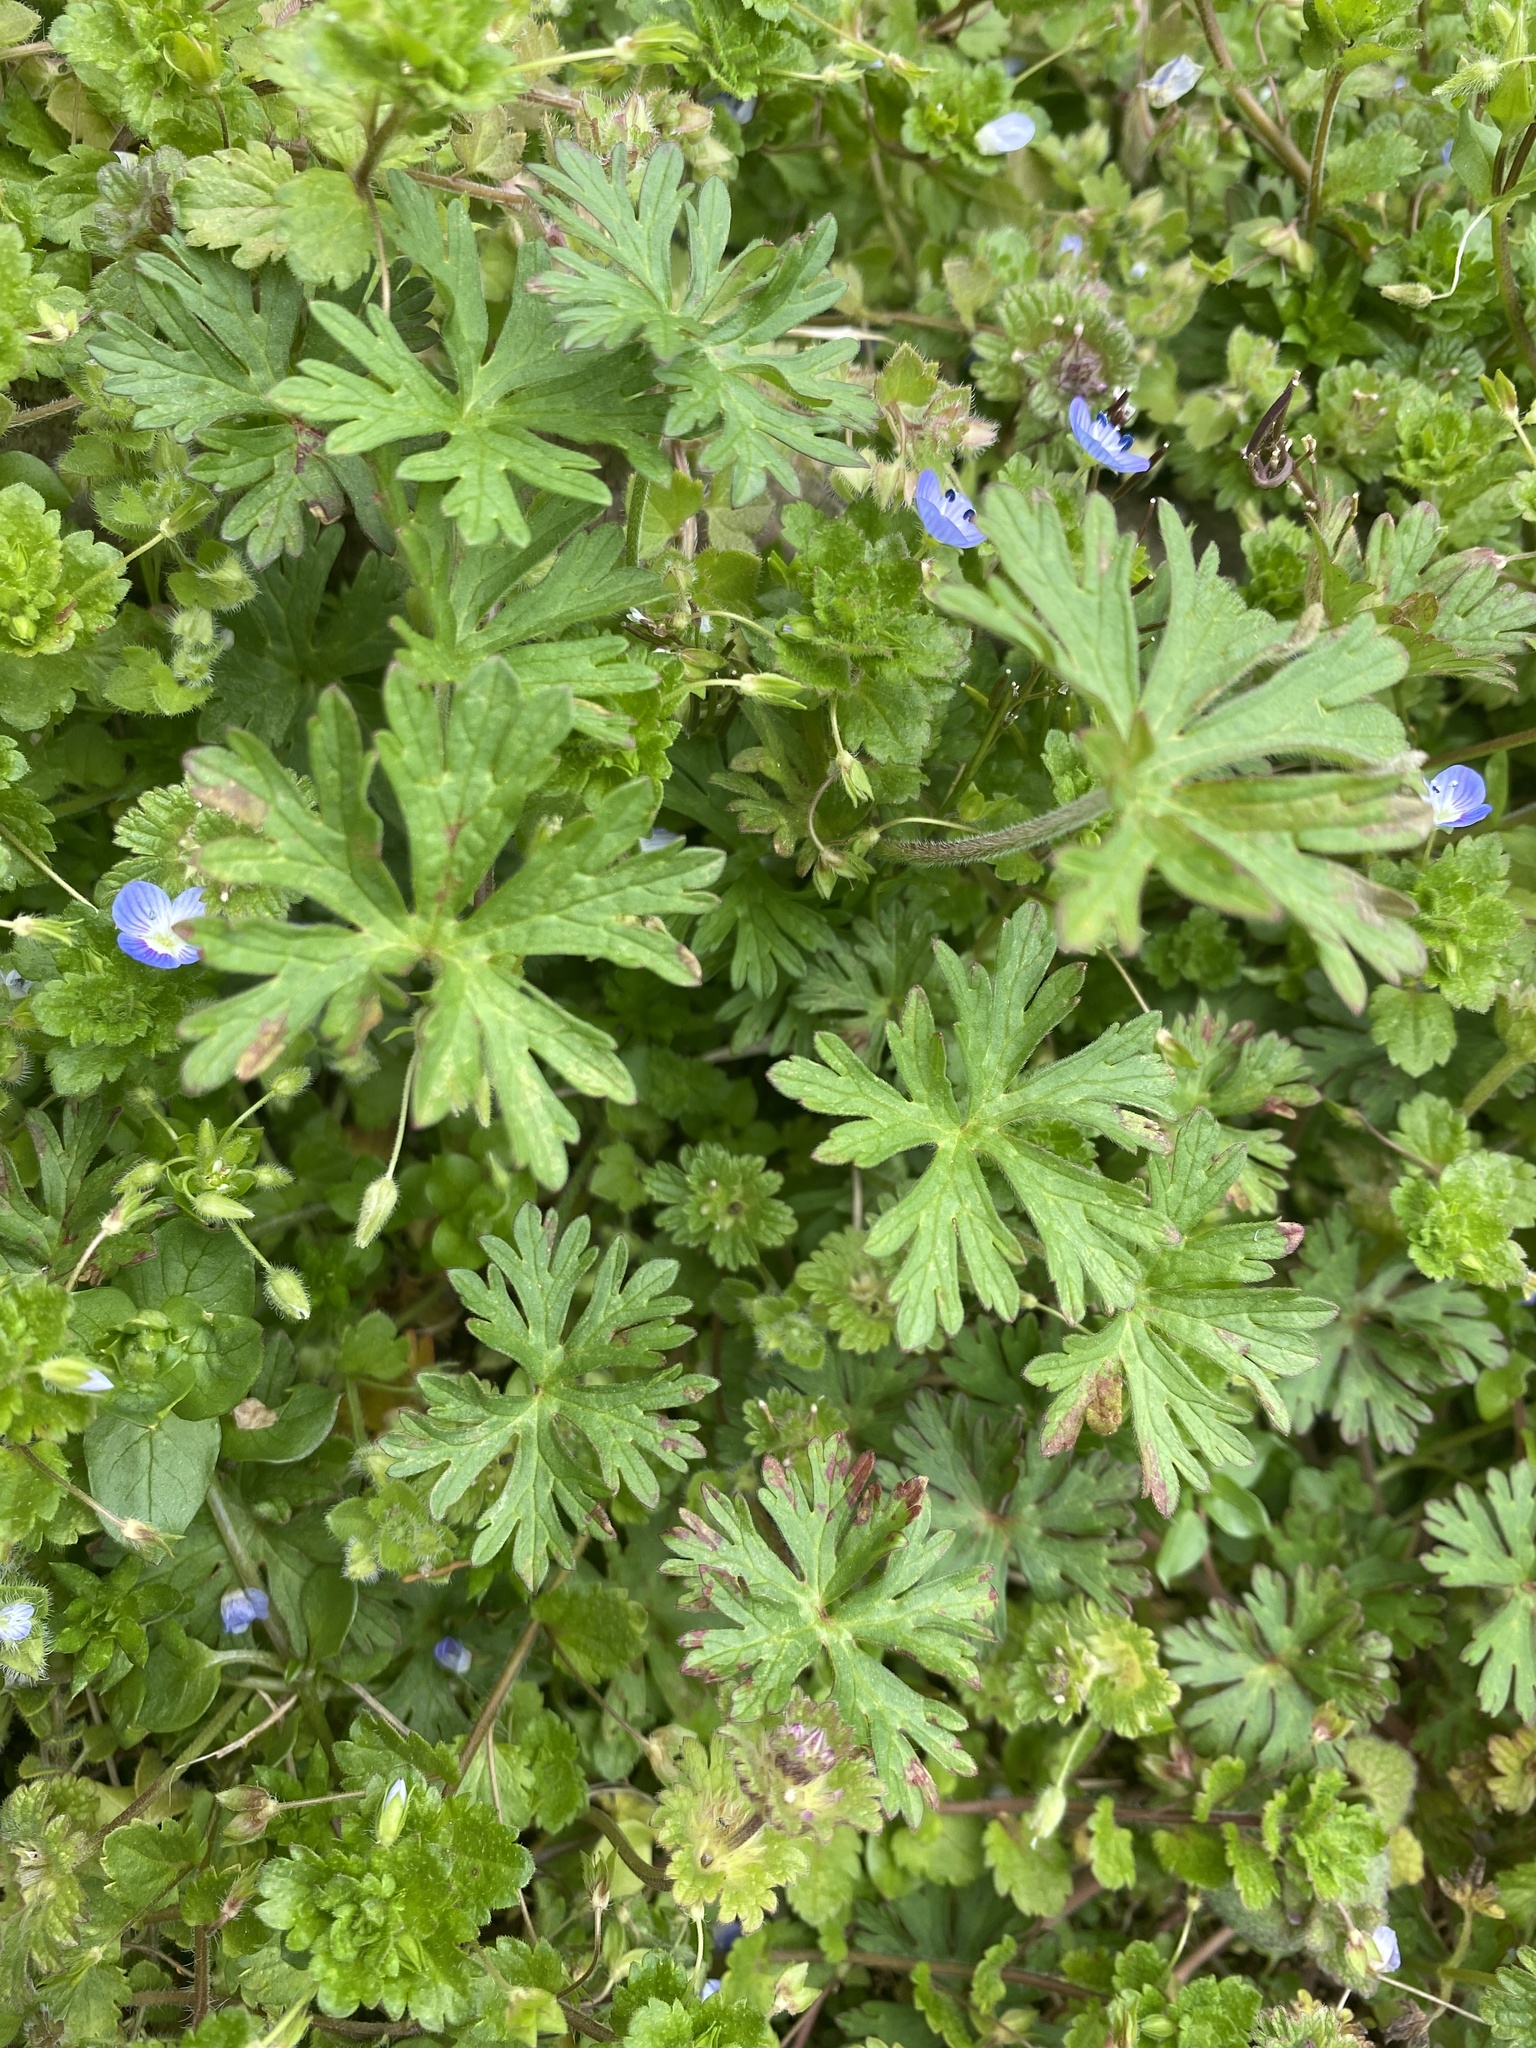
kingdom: Plantae
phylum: Tracheophyta
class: Magnoliopsida
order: Geraniales
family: Geraniaceae
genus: Geranium
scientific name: Geranium carolinianum
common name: Carolina crane's-bill
